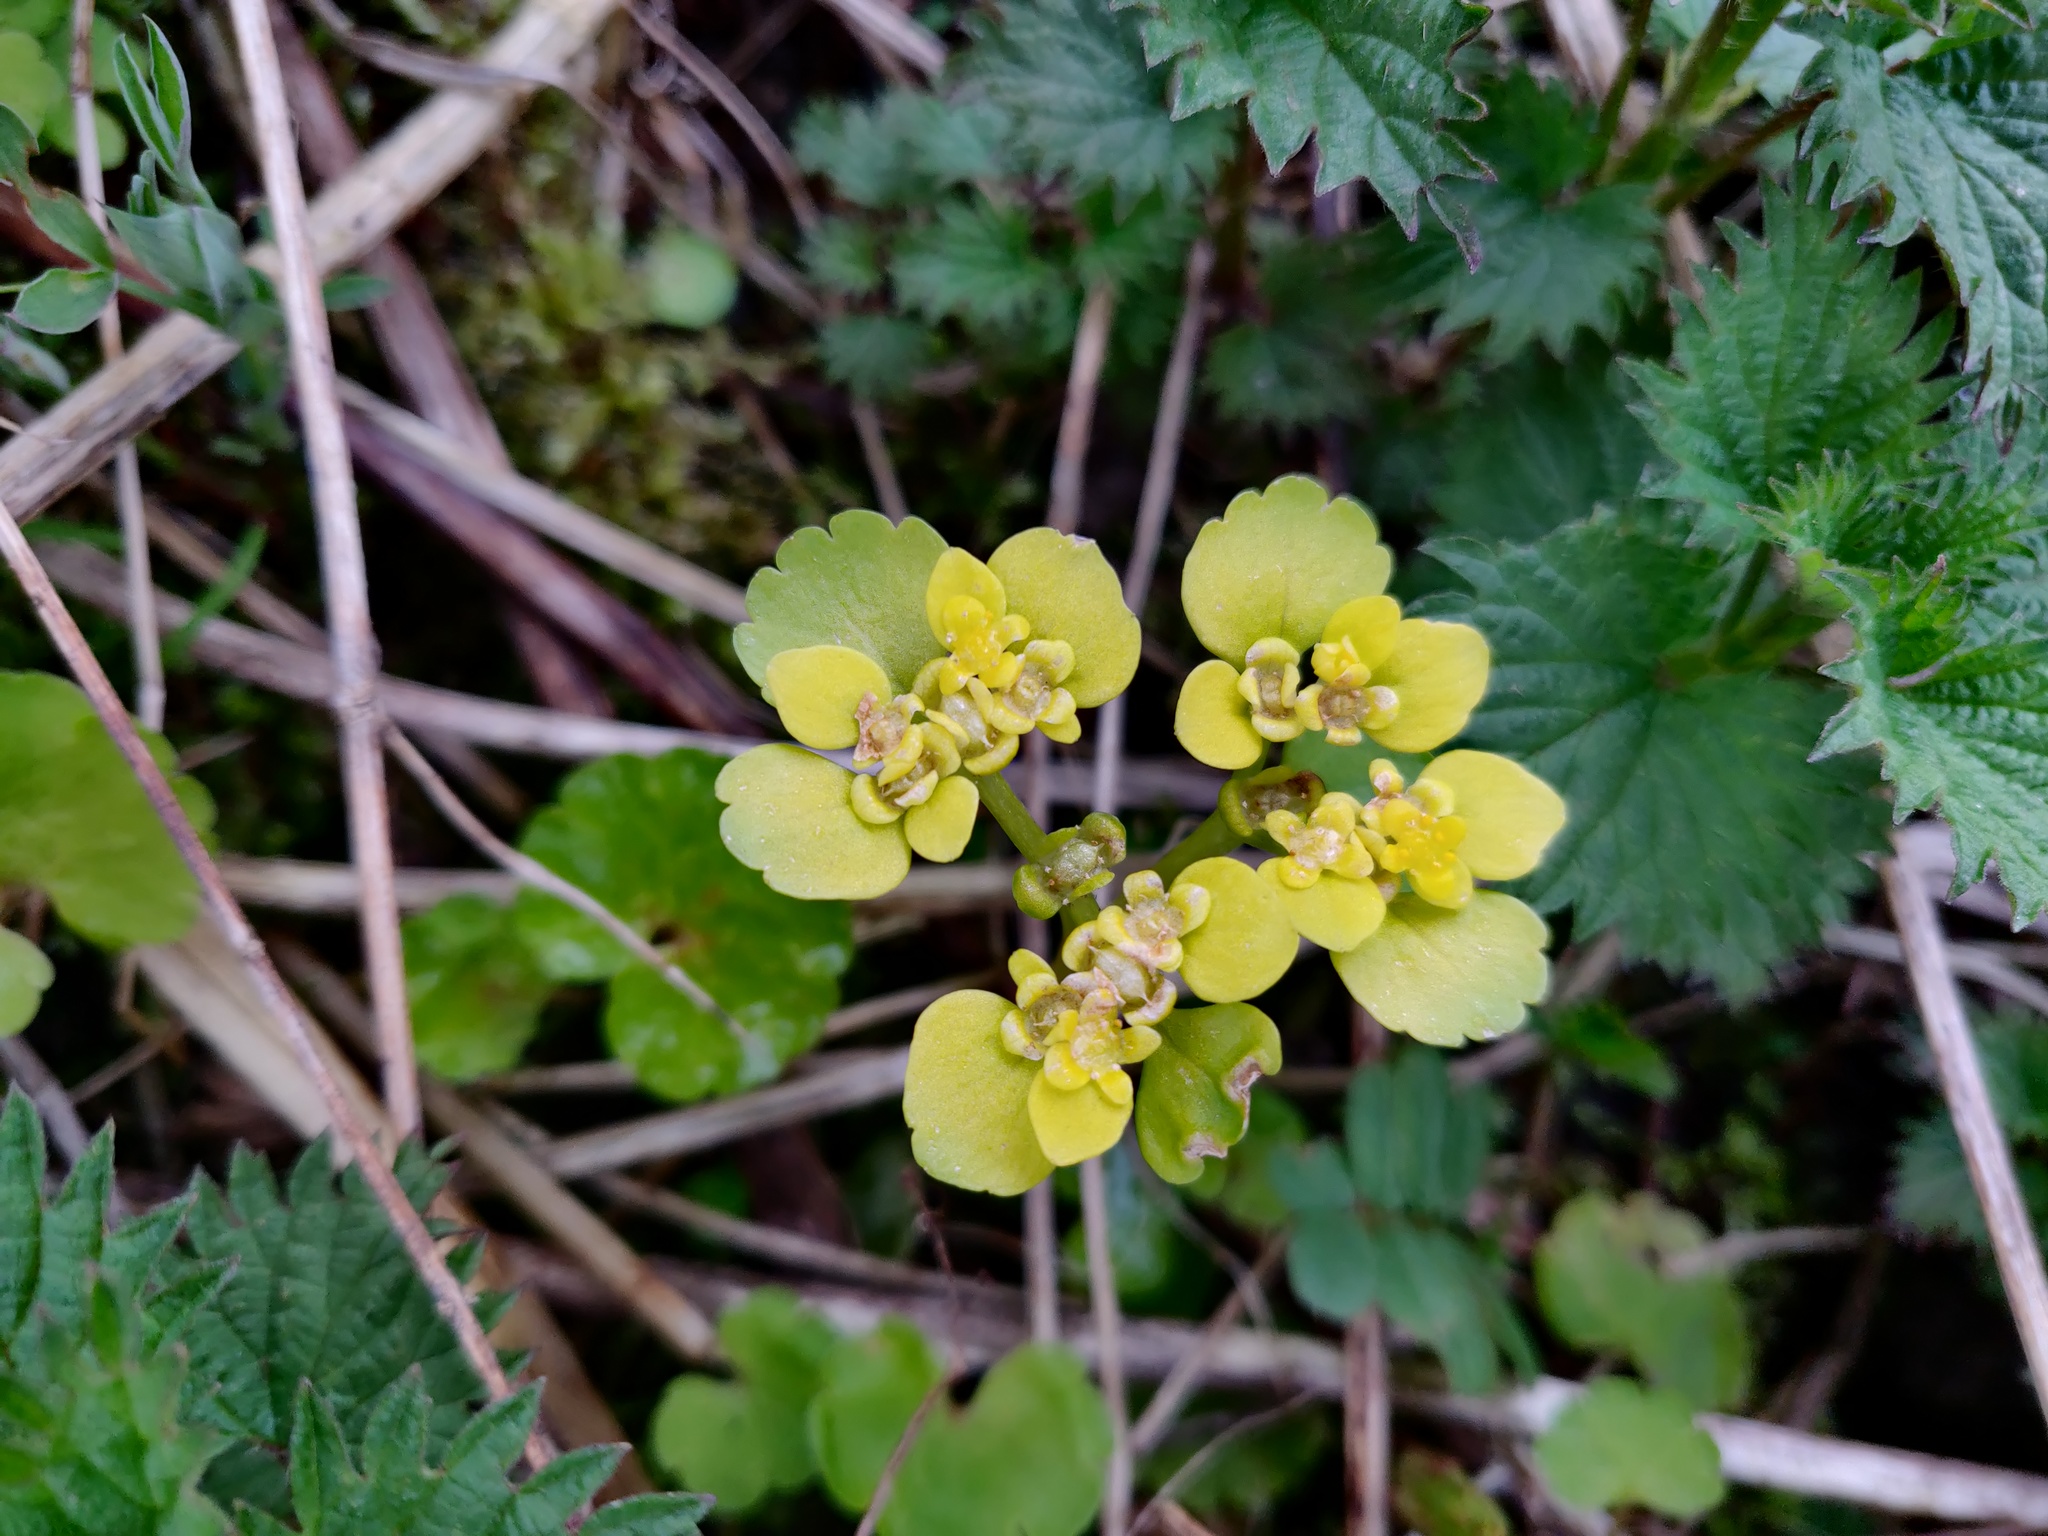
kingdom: Plantae
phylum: Tracheophyta
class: Magnoliopsida
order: Saxifragales
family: Saxifragaceae
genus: Chrysosplenium
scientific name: Chrysosplenium alternifolium
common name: Alternate-leaved golden-saxifrage
